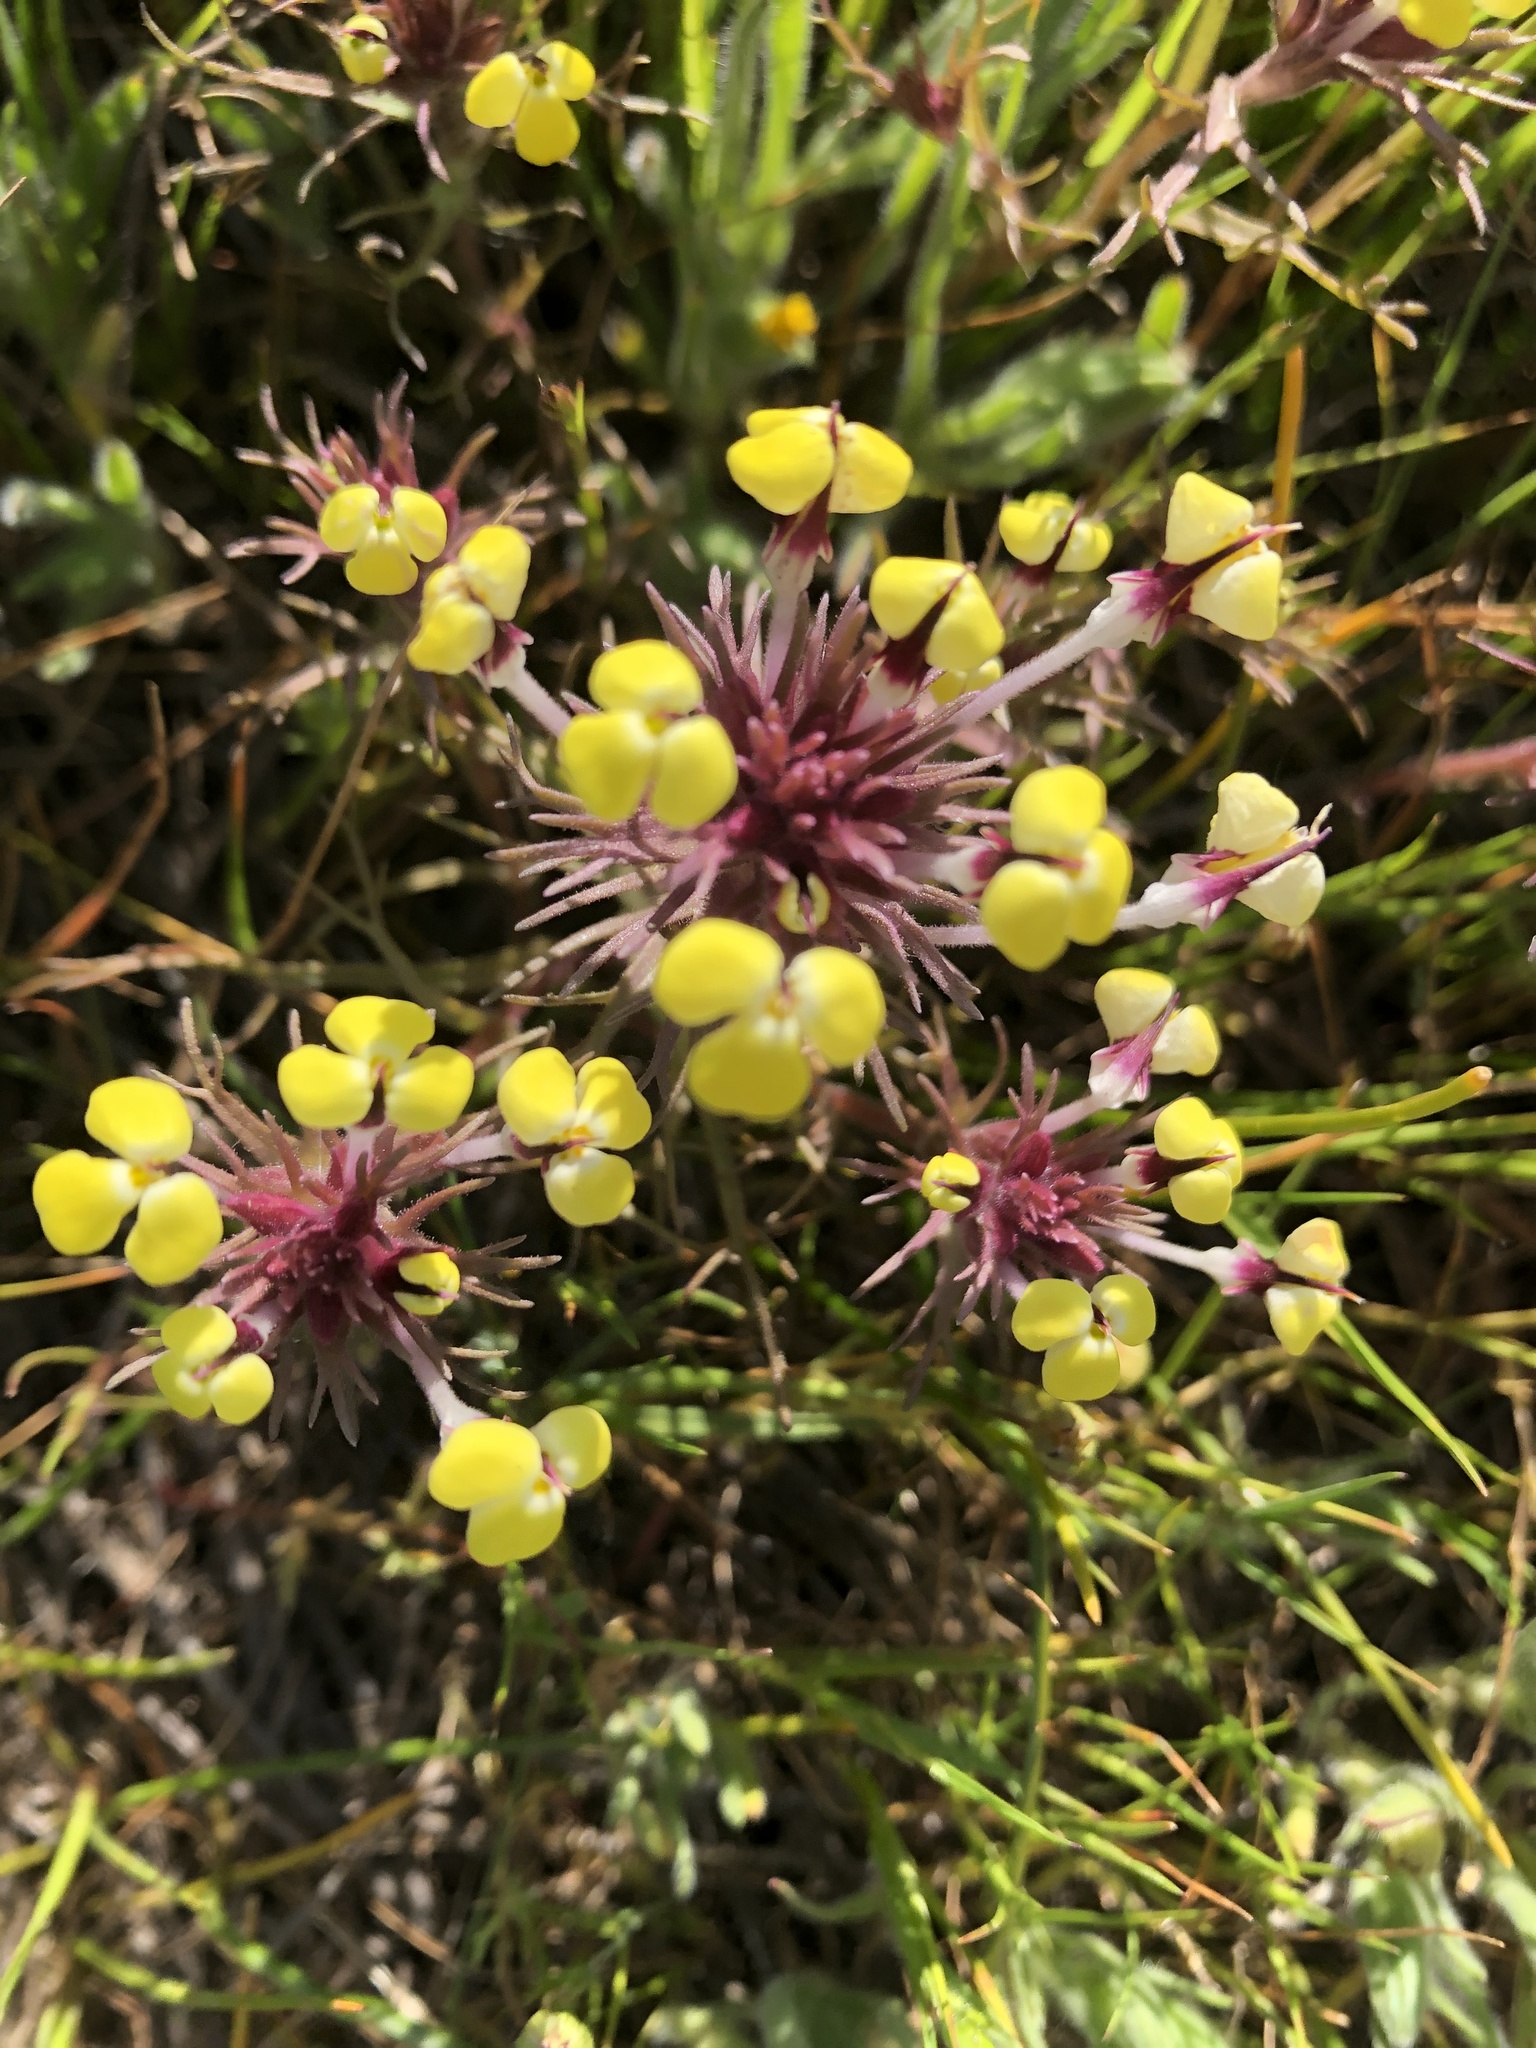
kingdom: Plantae
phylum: Tracheophyta
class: Magnoliopsida
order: Lamiales
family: Orobanchaceae
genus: Triphysaria
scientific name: Triphysaria eriantha
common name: Johnny-tuck
